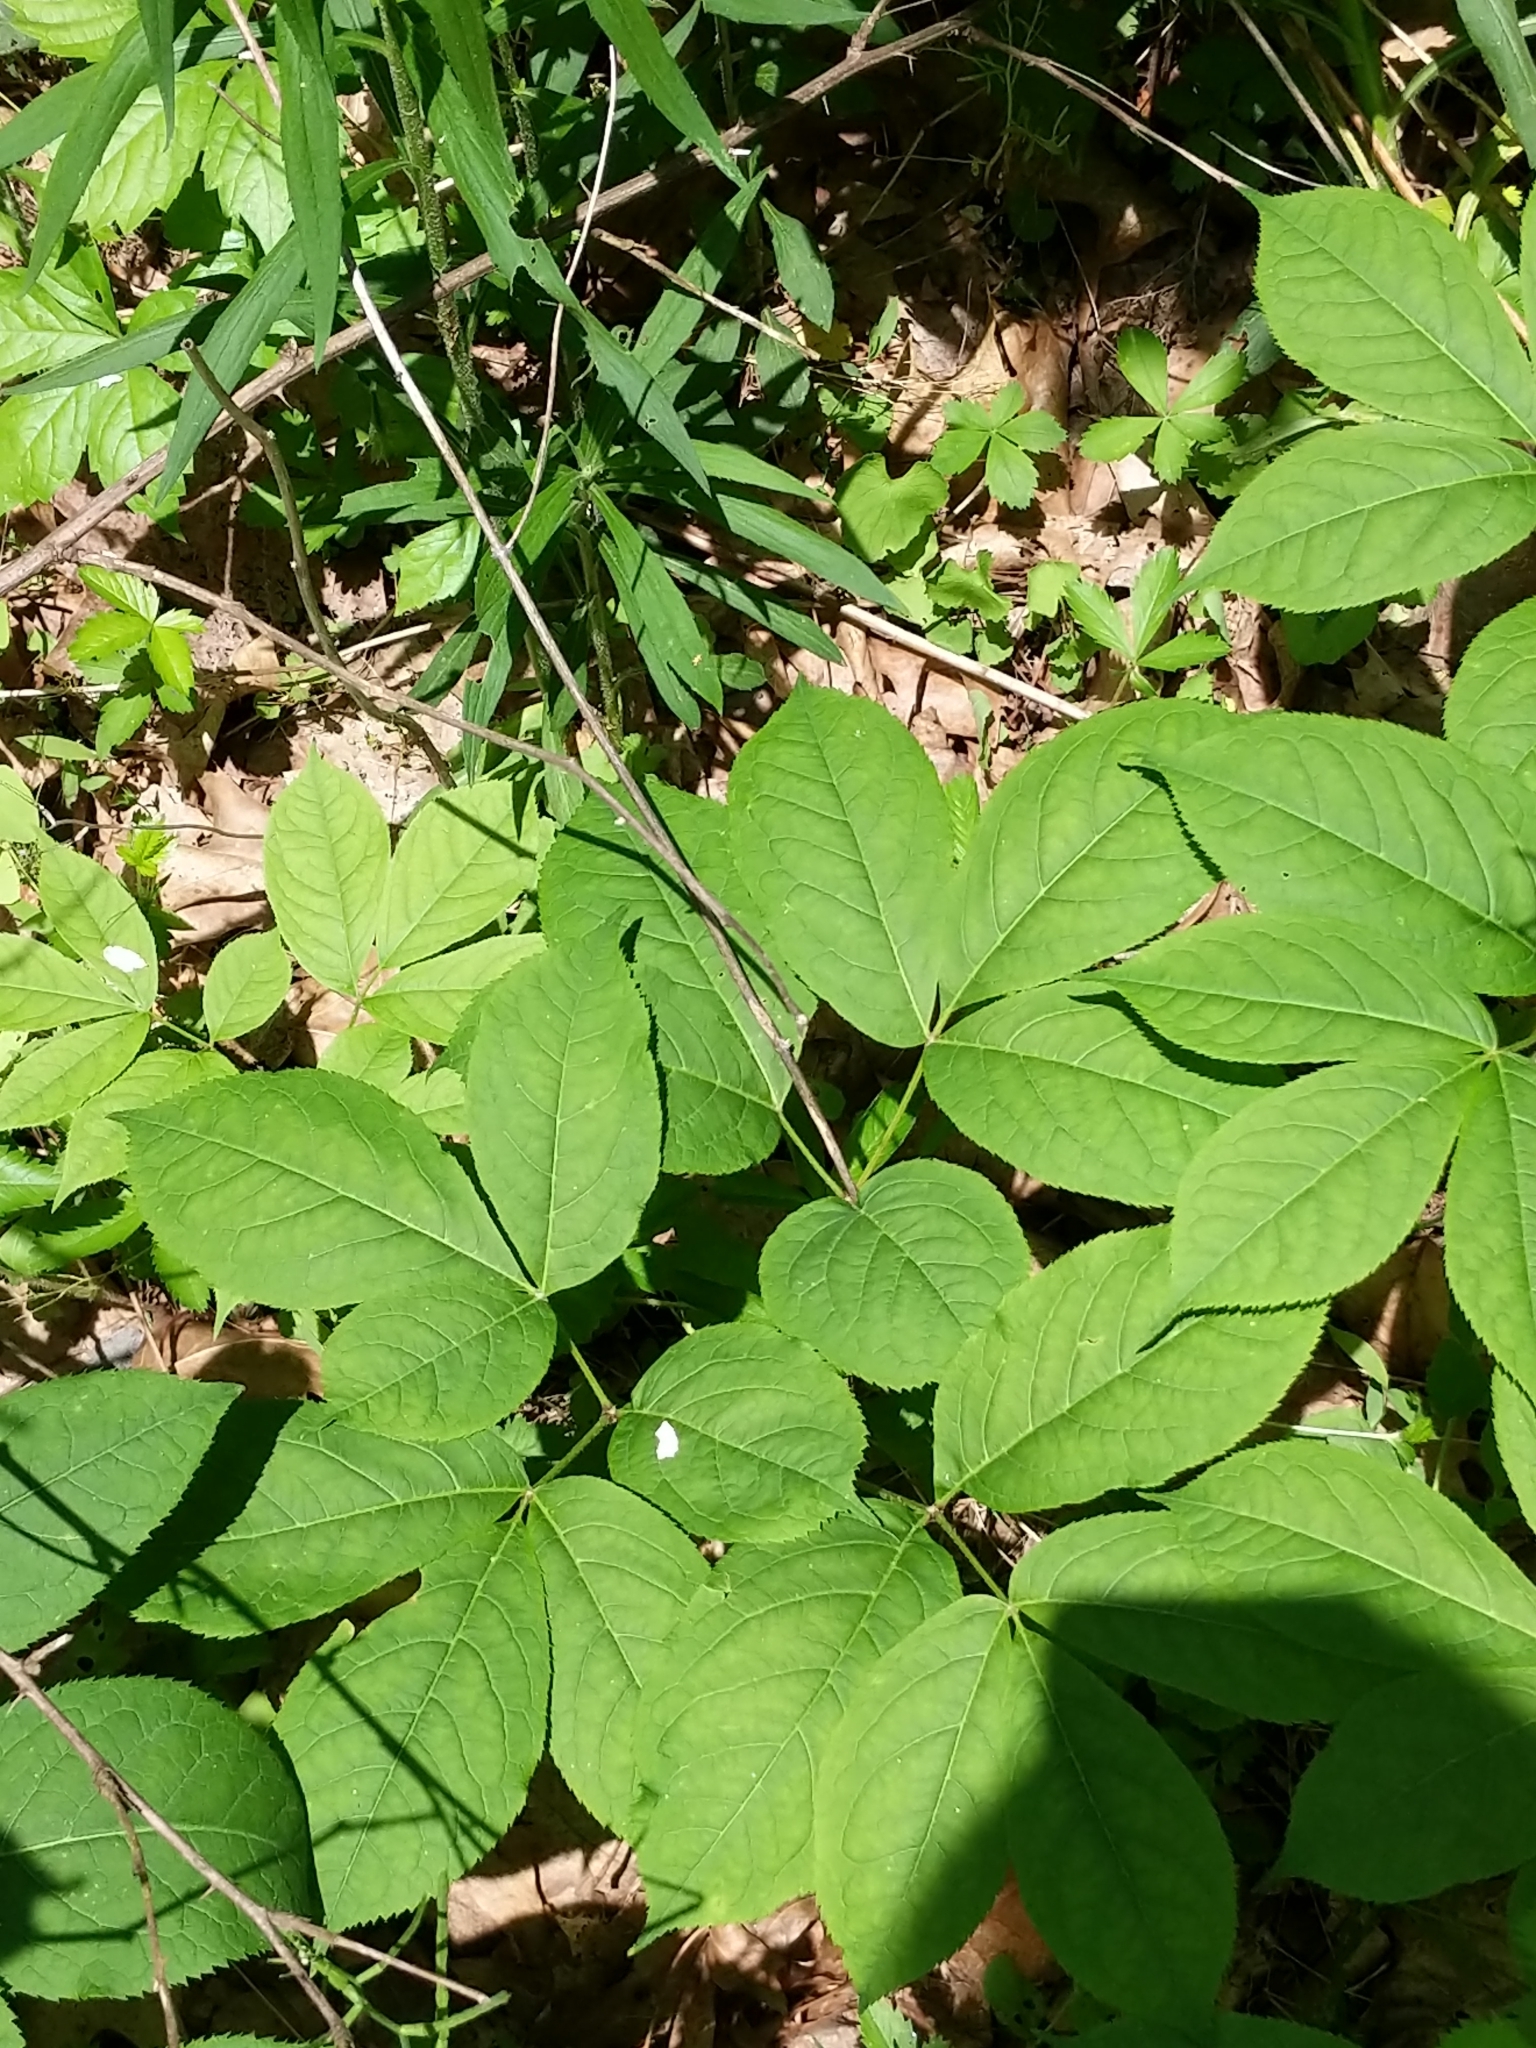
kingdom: Plantae
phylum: Tracheophyta
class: Magnoliopsida
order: Apiales
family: Araliaceae
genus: Aralia
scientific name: Aralia nudicaulis
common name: Wild sarsaparilla
